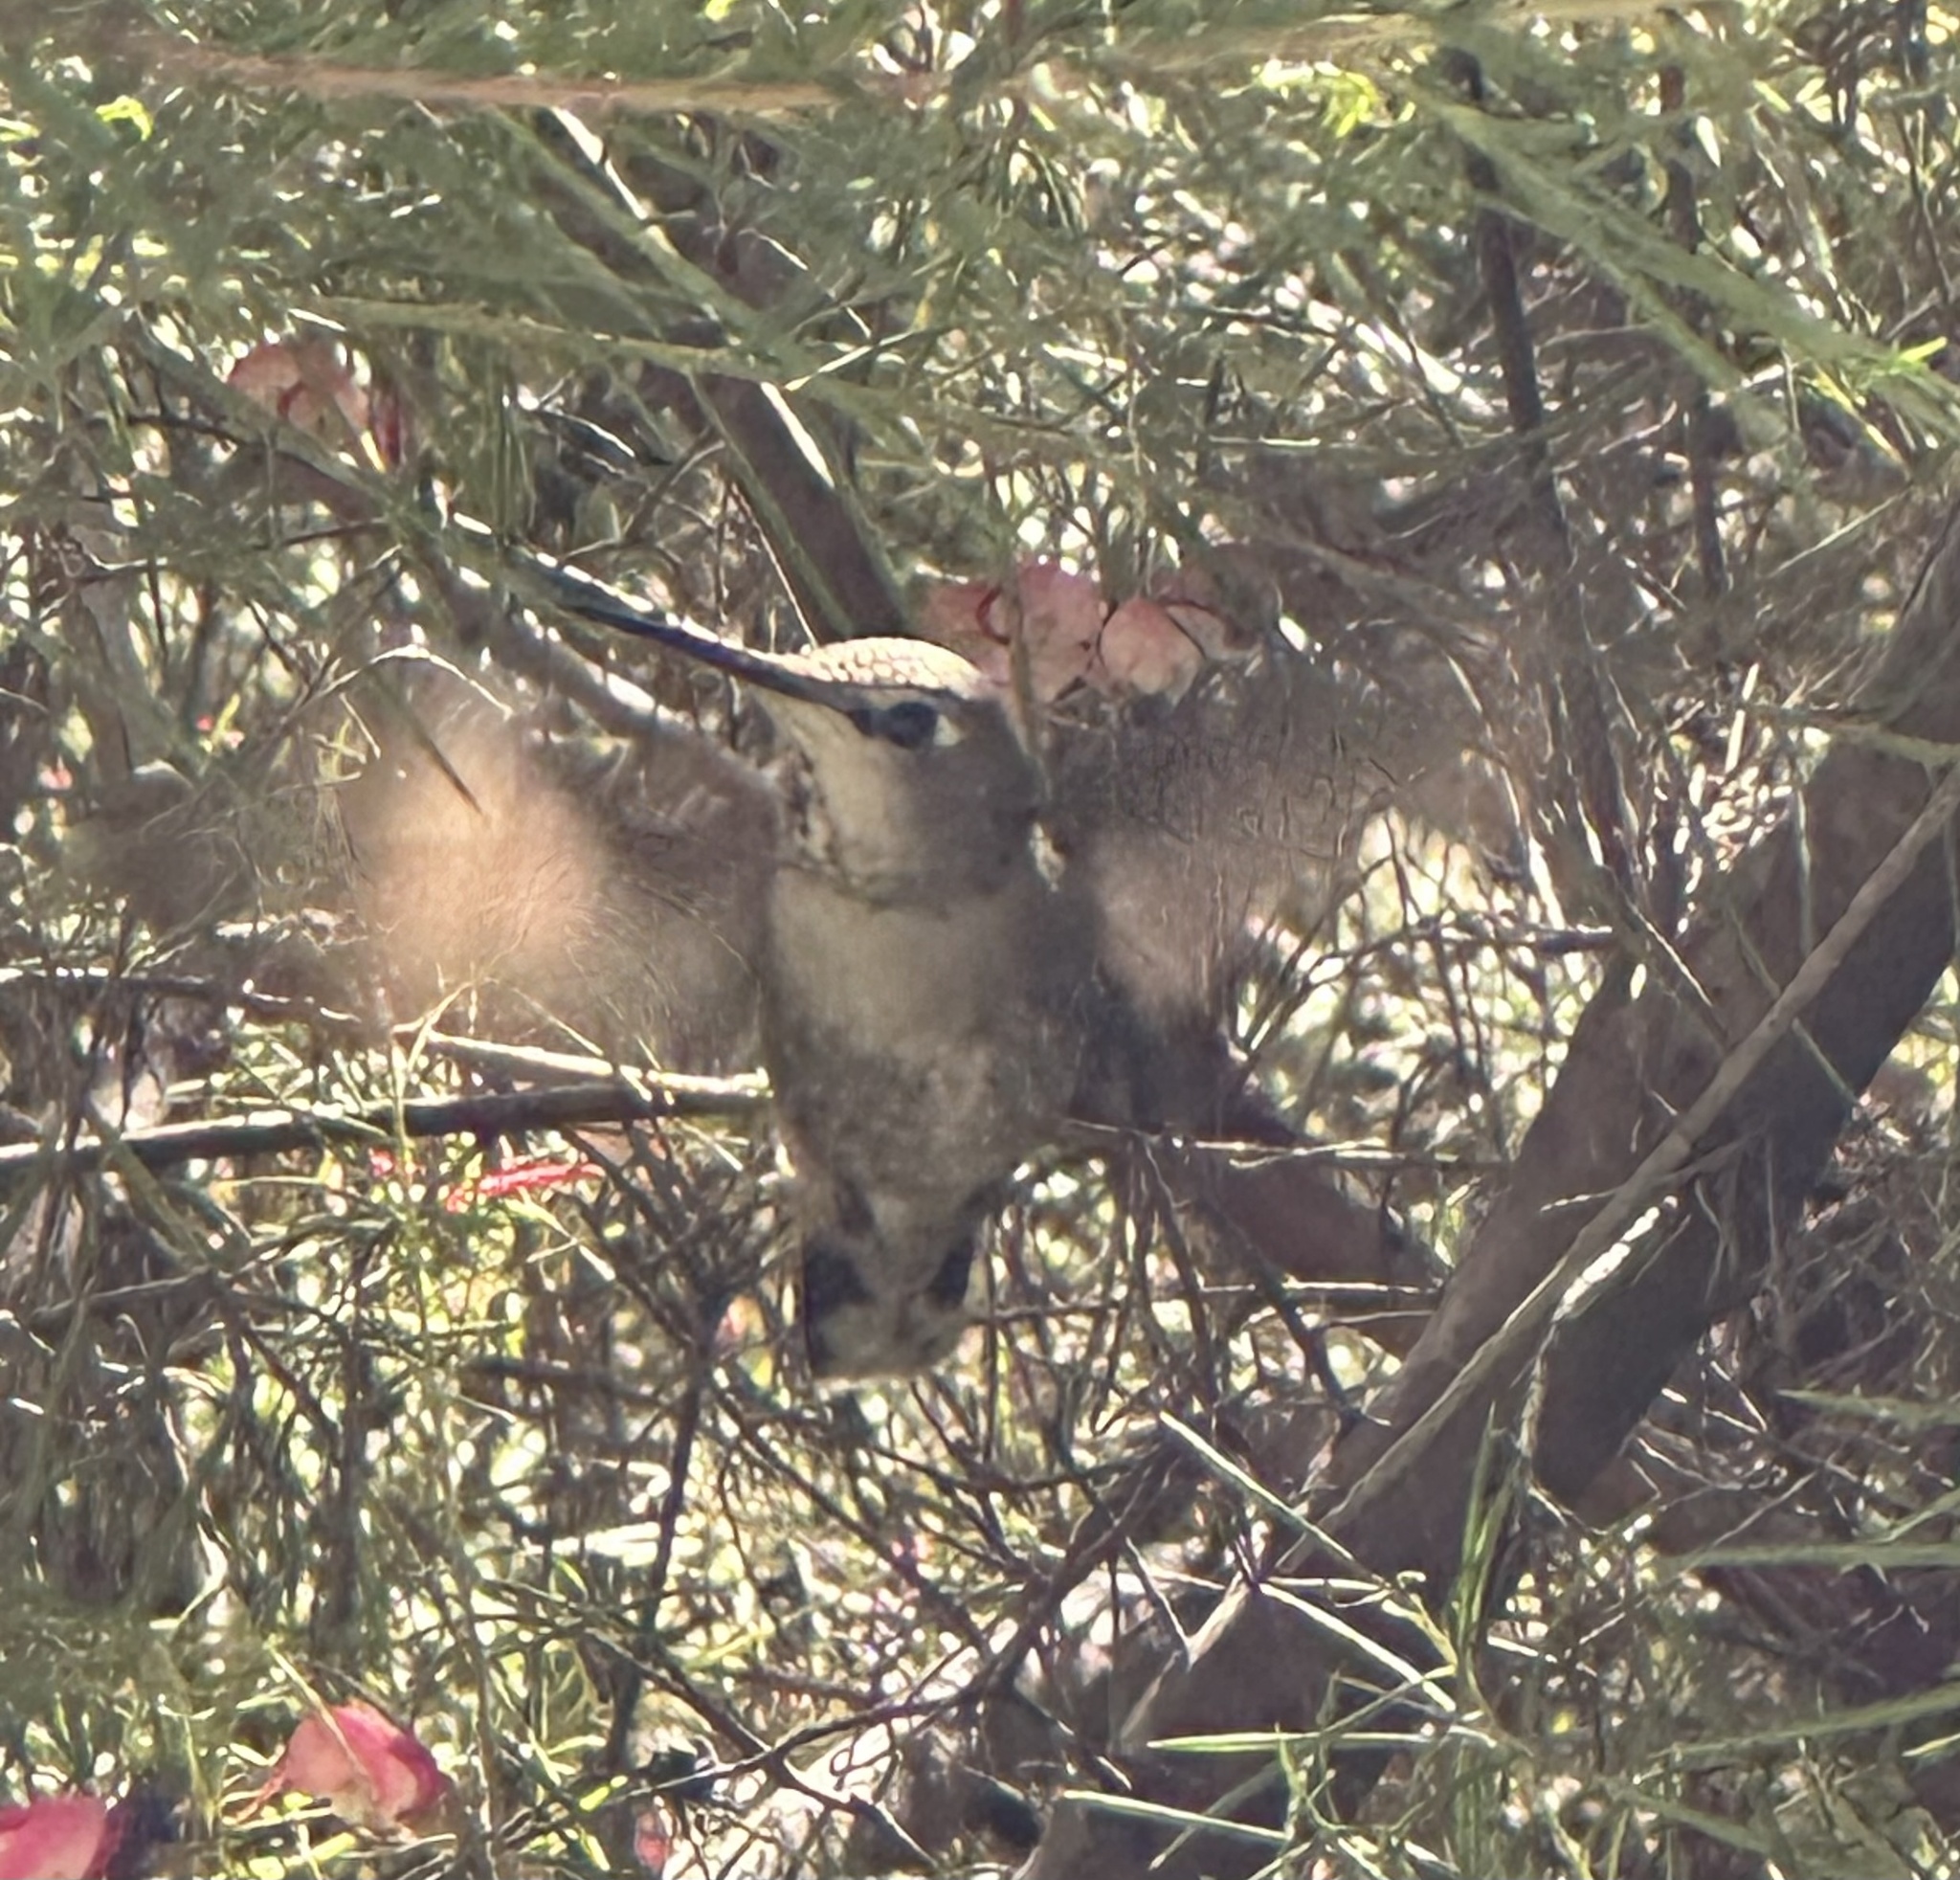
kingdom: Animalia
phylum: Chordata
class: Aves
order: Apodiformes
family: Trochilidae
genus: Calypte
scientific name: Calypte anna
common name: Anna's hummingbird
